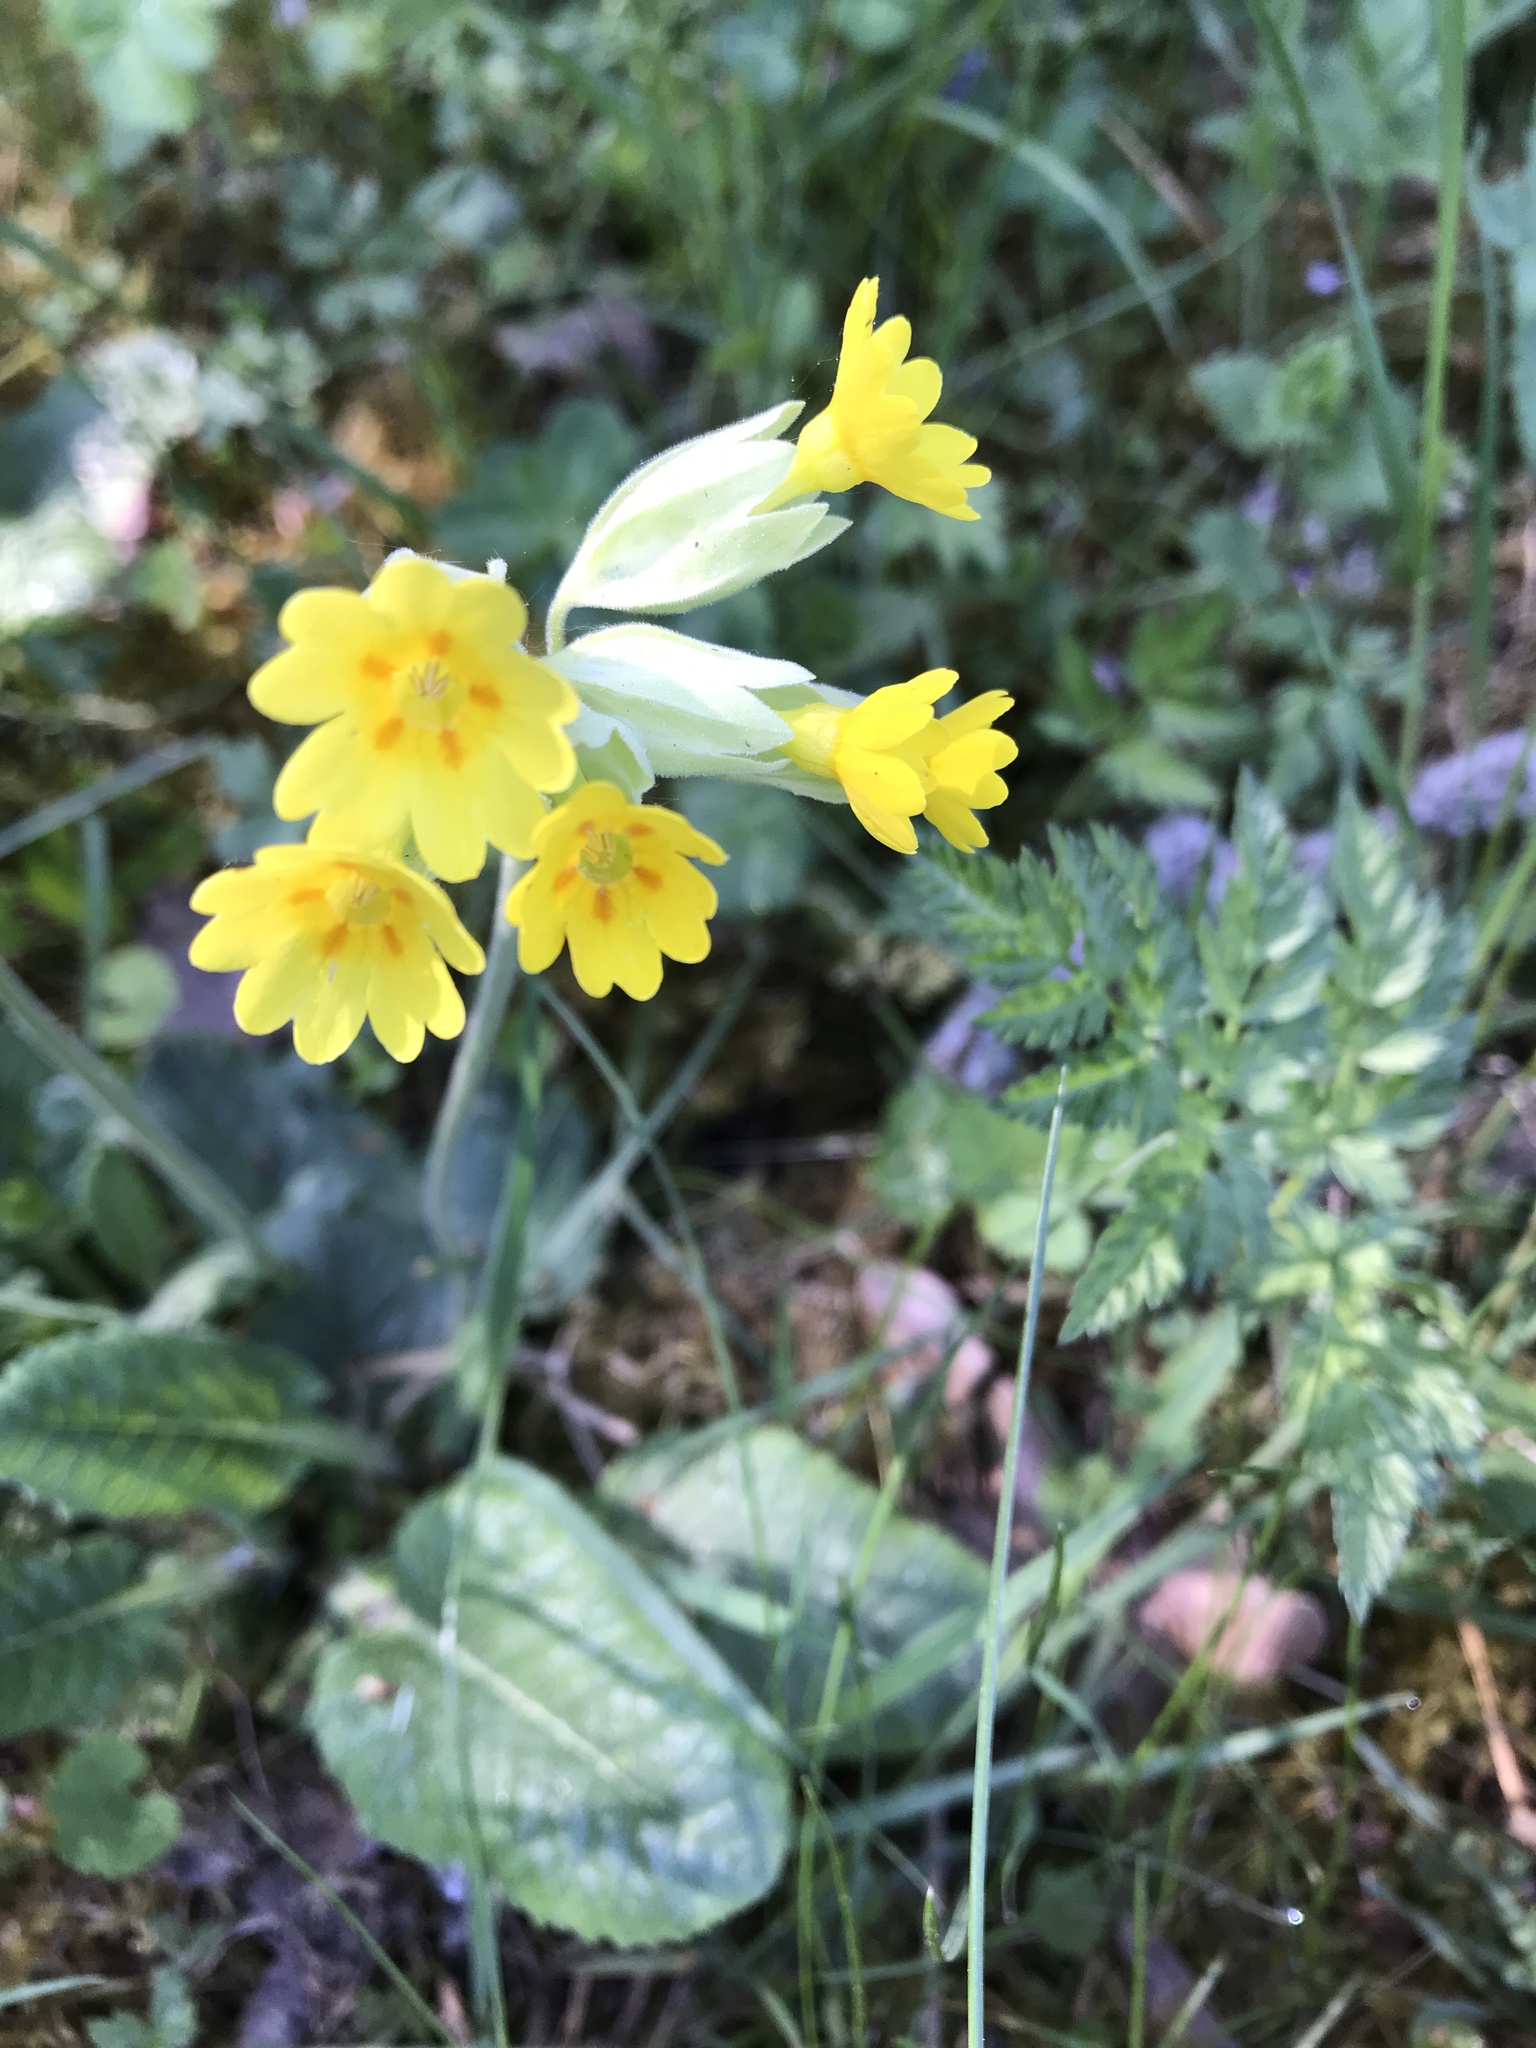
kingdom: Plantae
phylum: Tracheophyta
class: Magnoliopsida
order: Ericales
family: Primulaceae
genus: Primula
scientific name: Primula veris
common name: Cowslip
